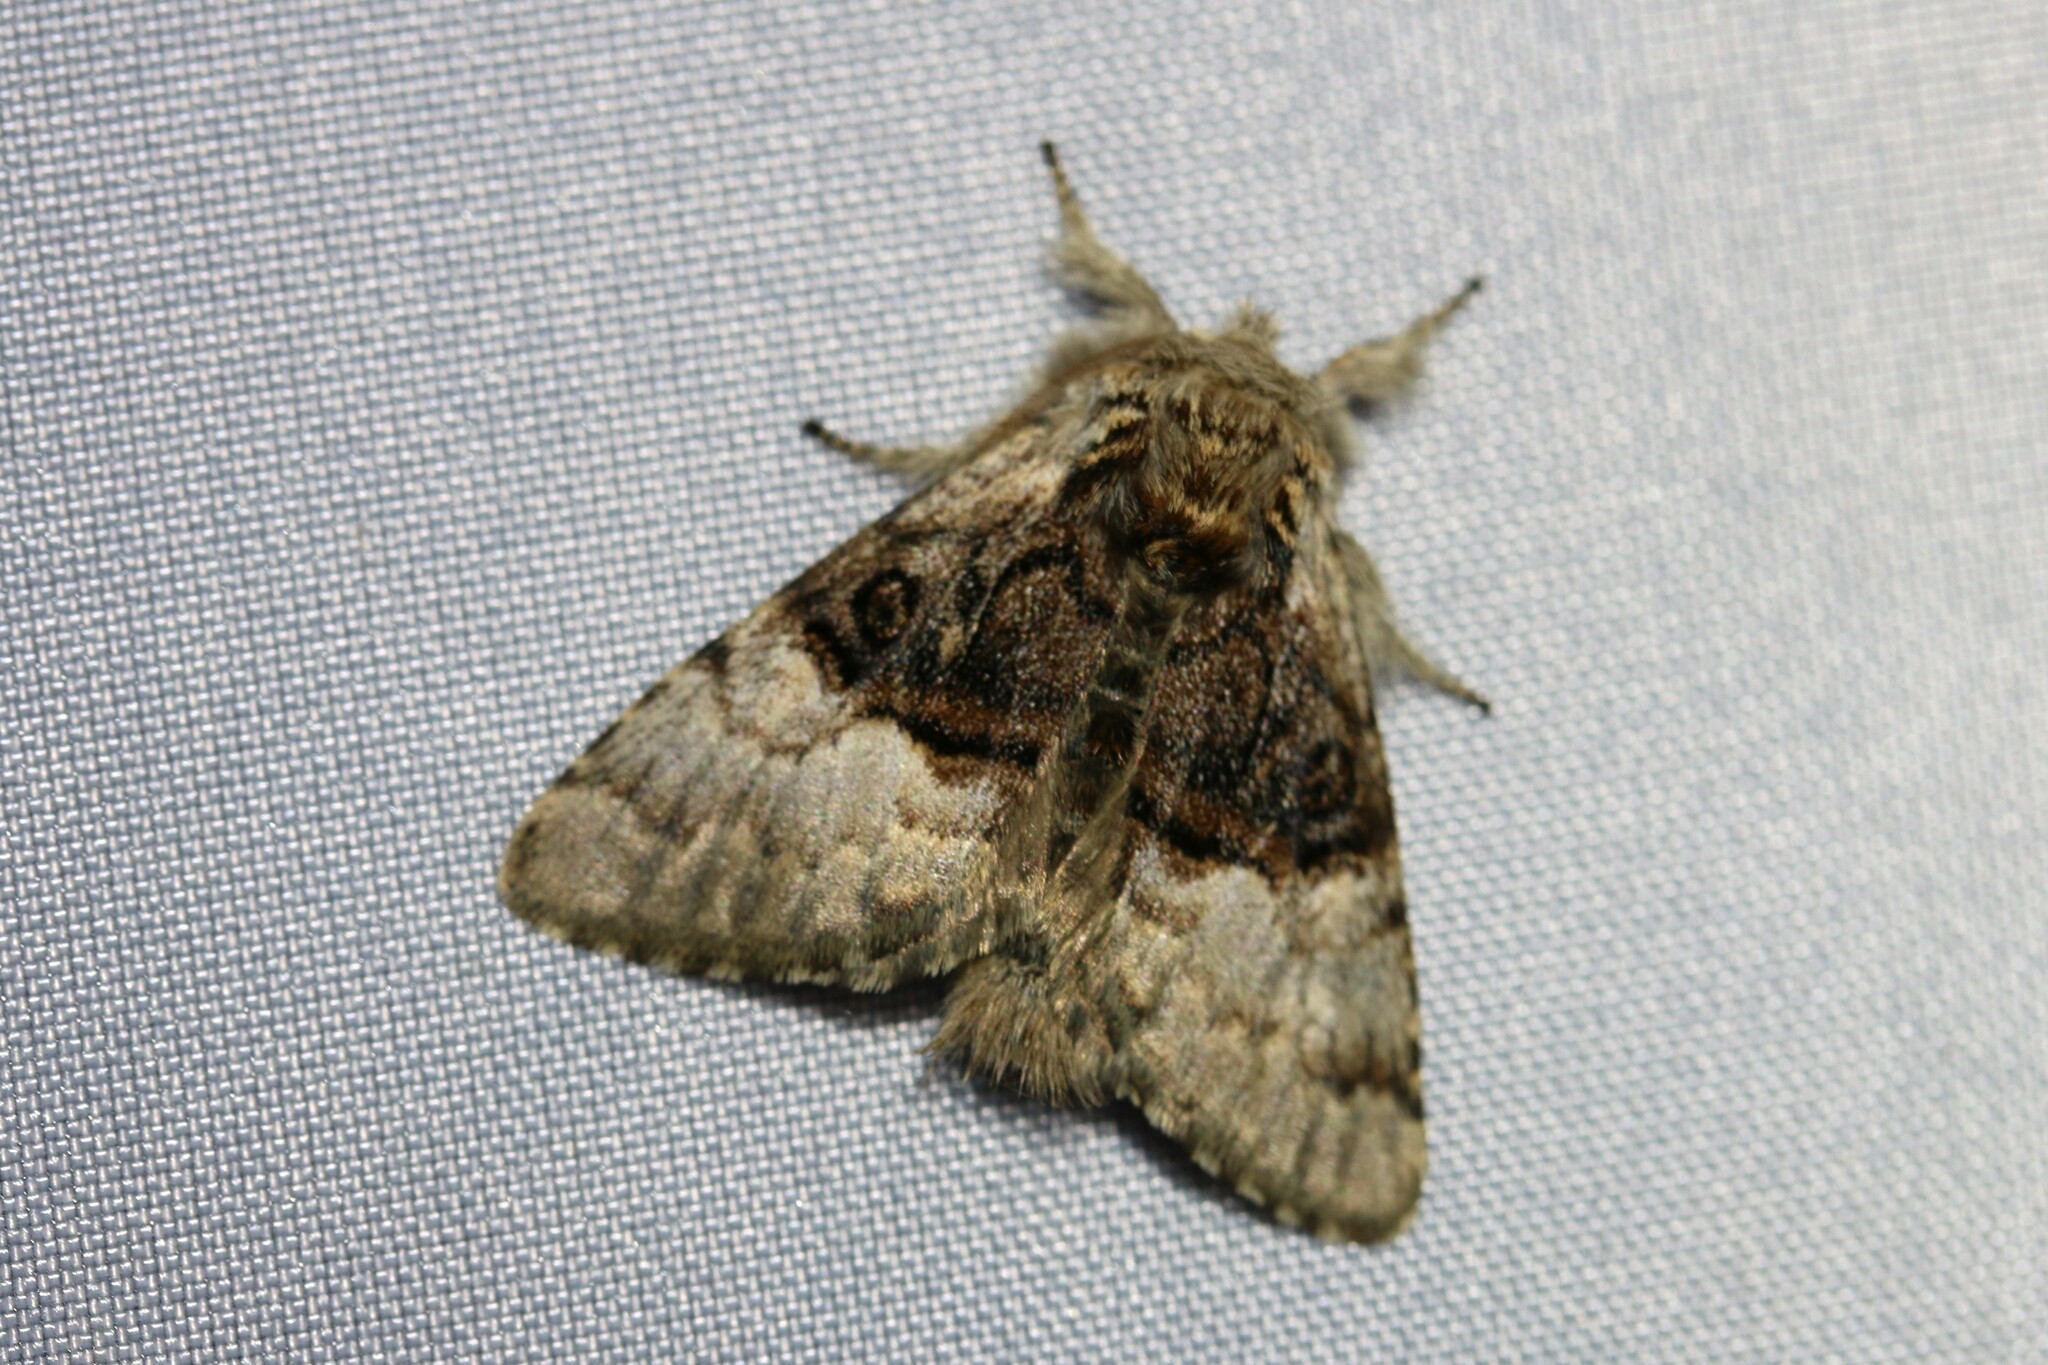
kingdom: Animalia
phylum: Arthropoda
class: Insecta
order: Lepidoptera
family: Noctuidae
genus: Colocasia
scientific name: Colocasia coryli
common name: Nut-tree tussock
